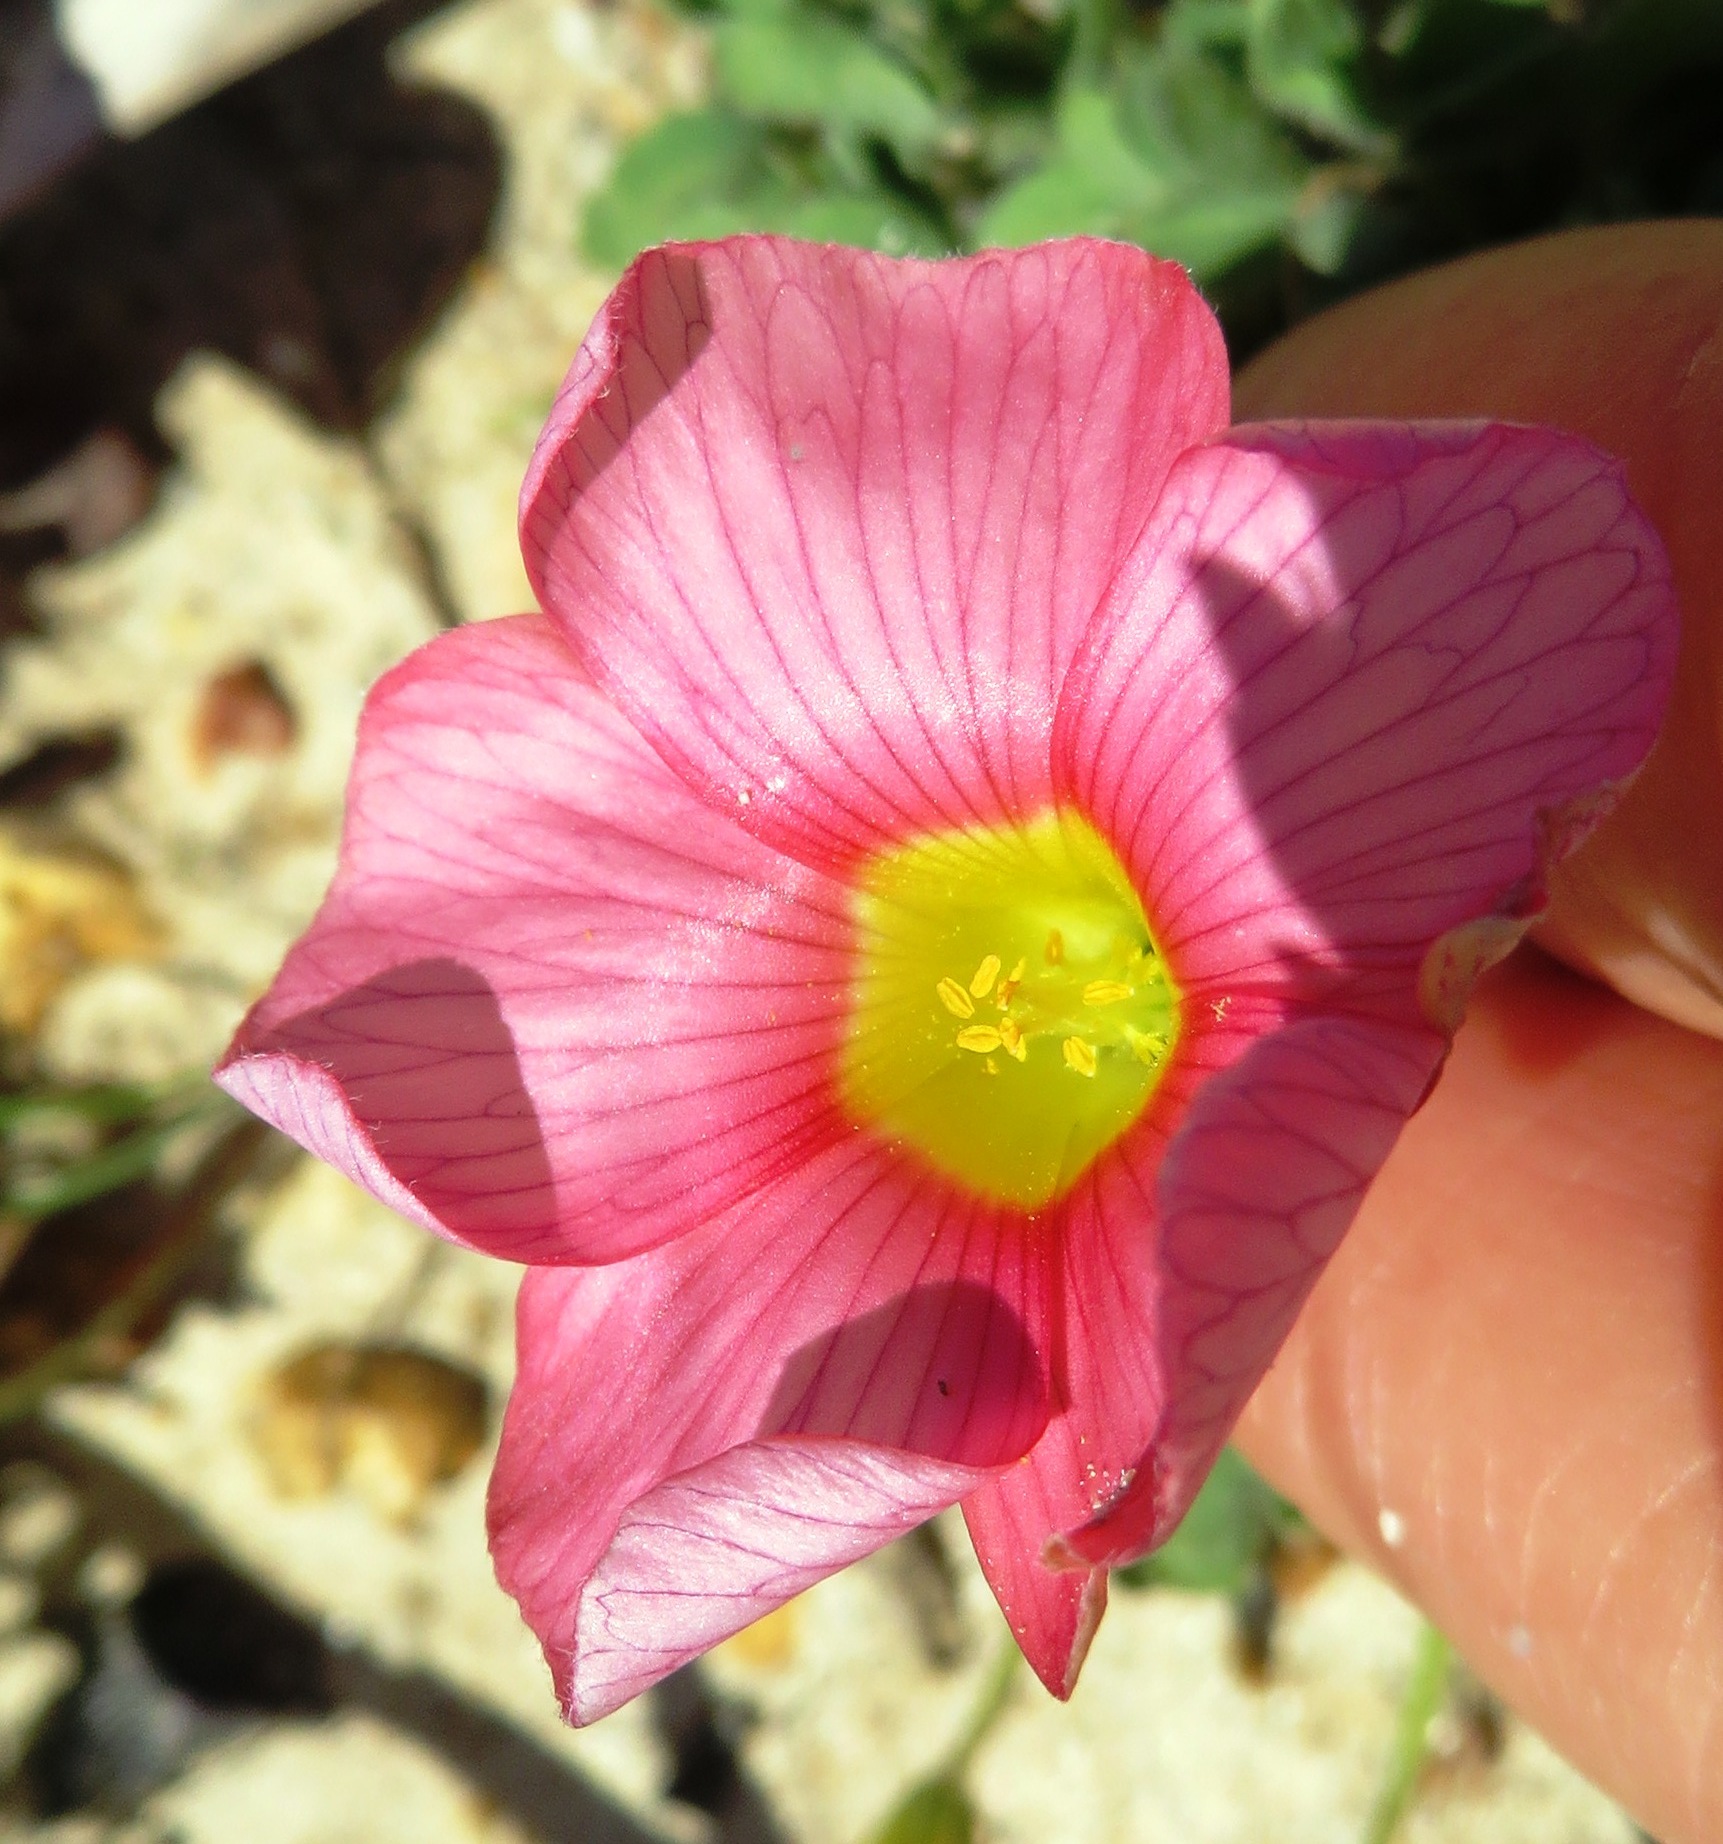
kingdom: Plantae
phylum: Tracheophyta
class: Magnoliopsida
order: Oxalidales
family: Oxalidaceae
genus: Oxalis
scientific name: Oxalis obtusa
